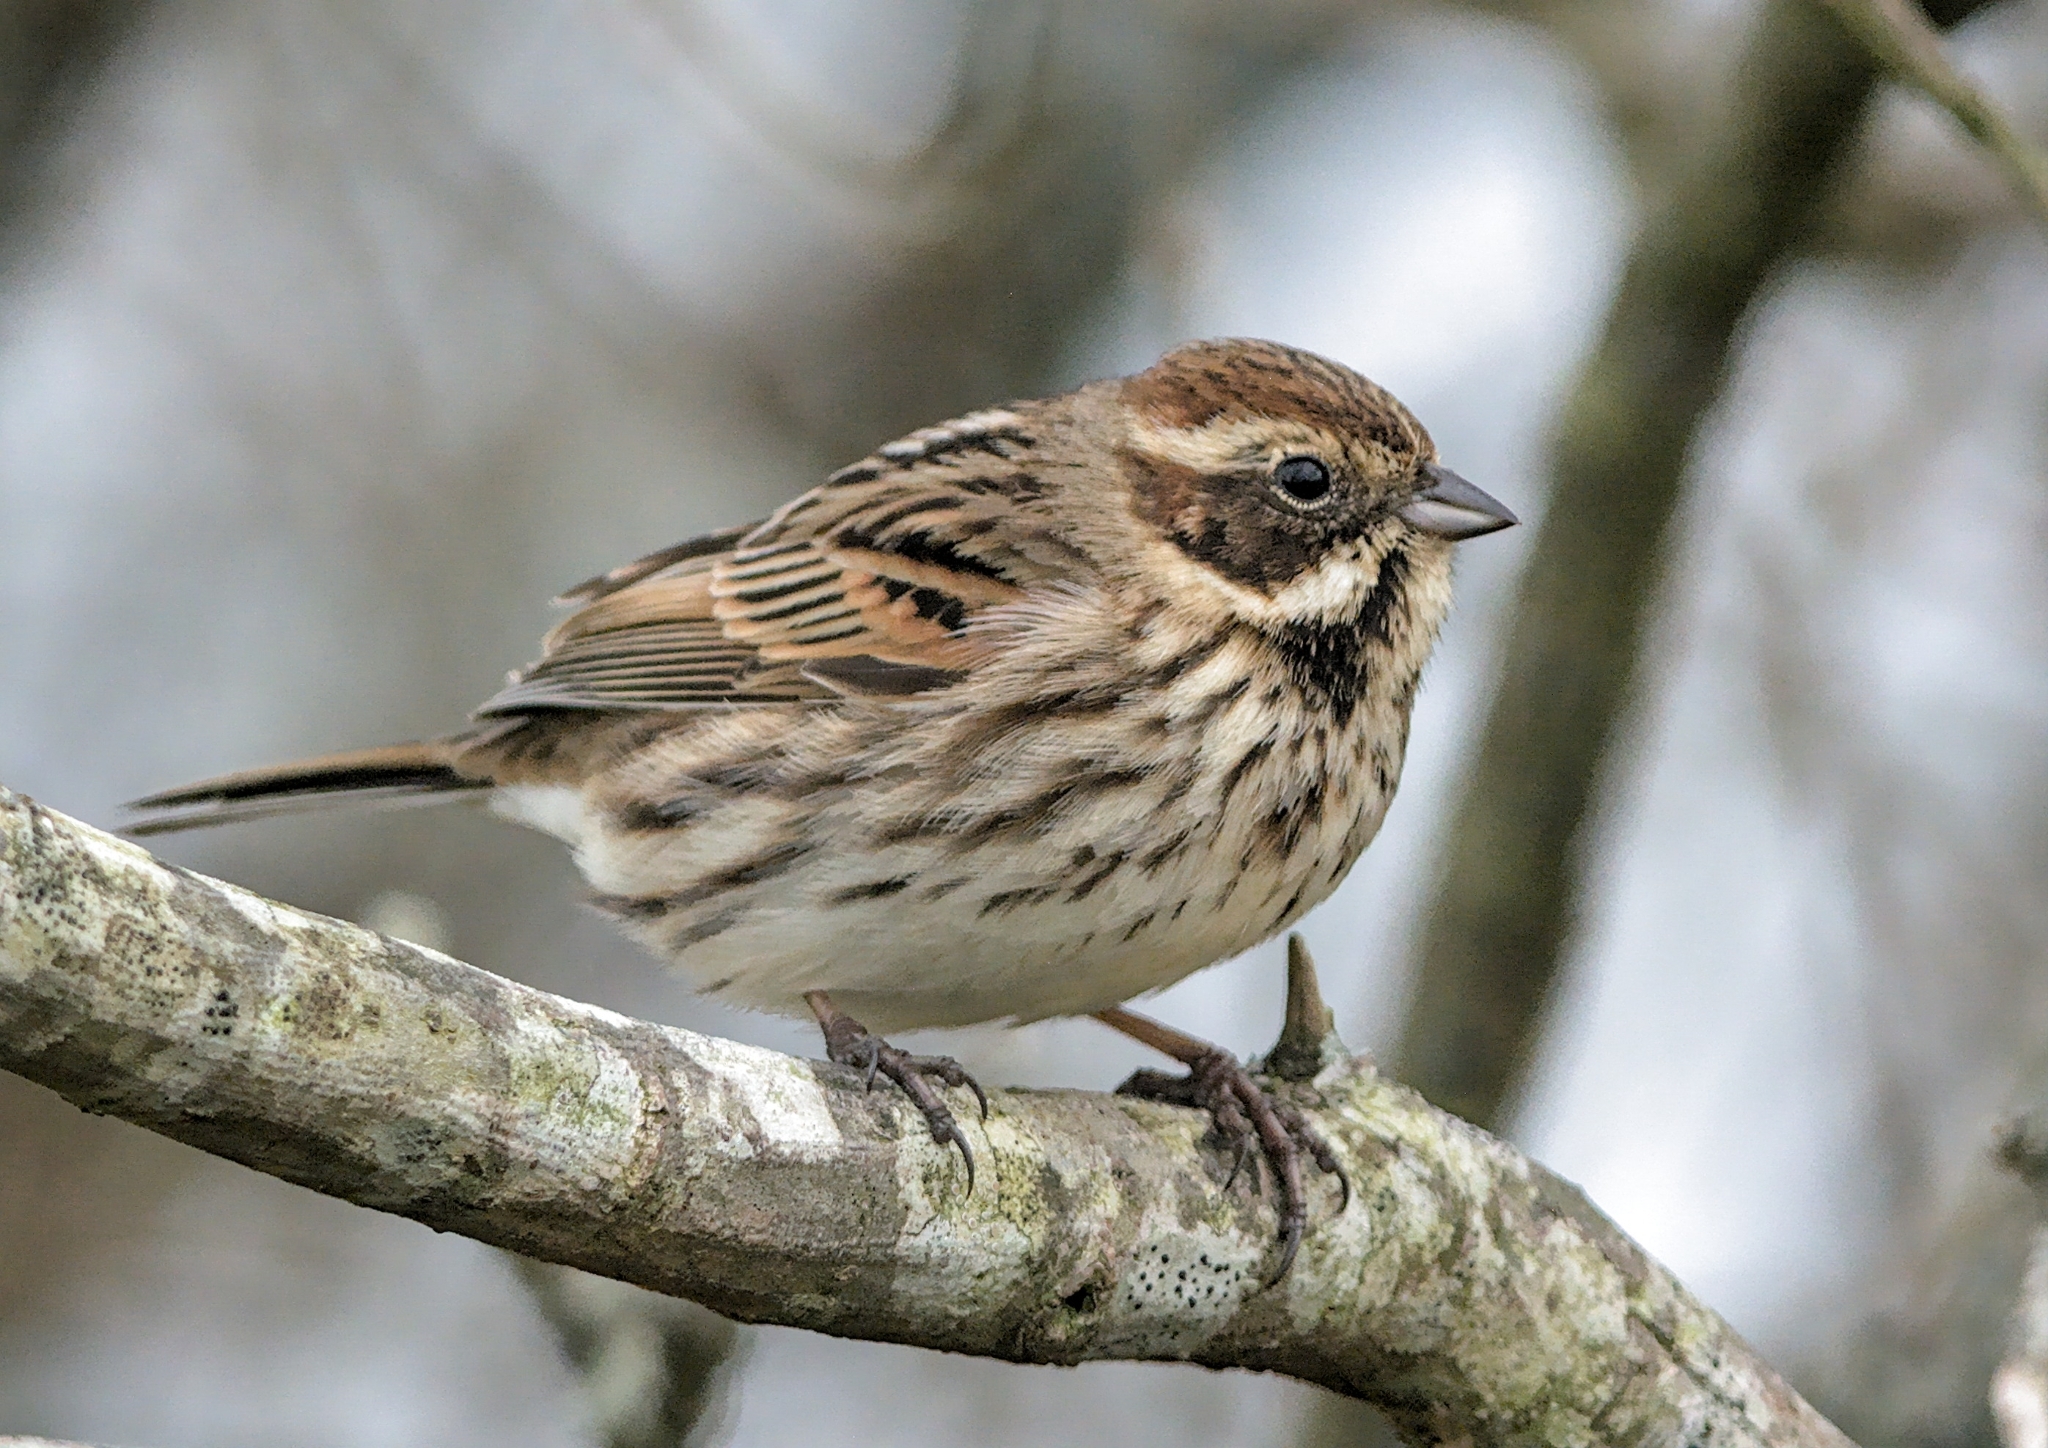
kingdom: Animalia
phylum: Chordata
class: Aves
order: Passeriformes
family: Emberizidae
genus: Emberiza
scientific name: Emberiza schoeniclus
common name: Reed bunting
